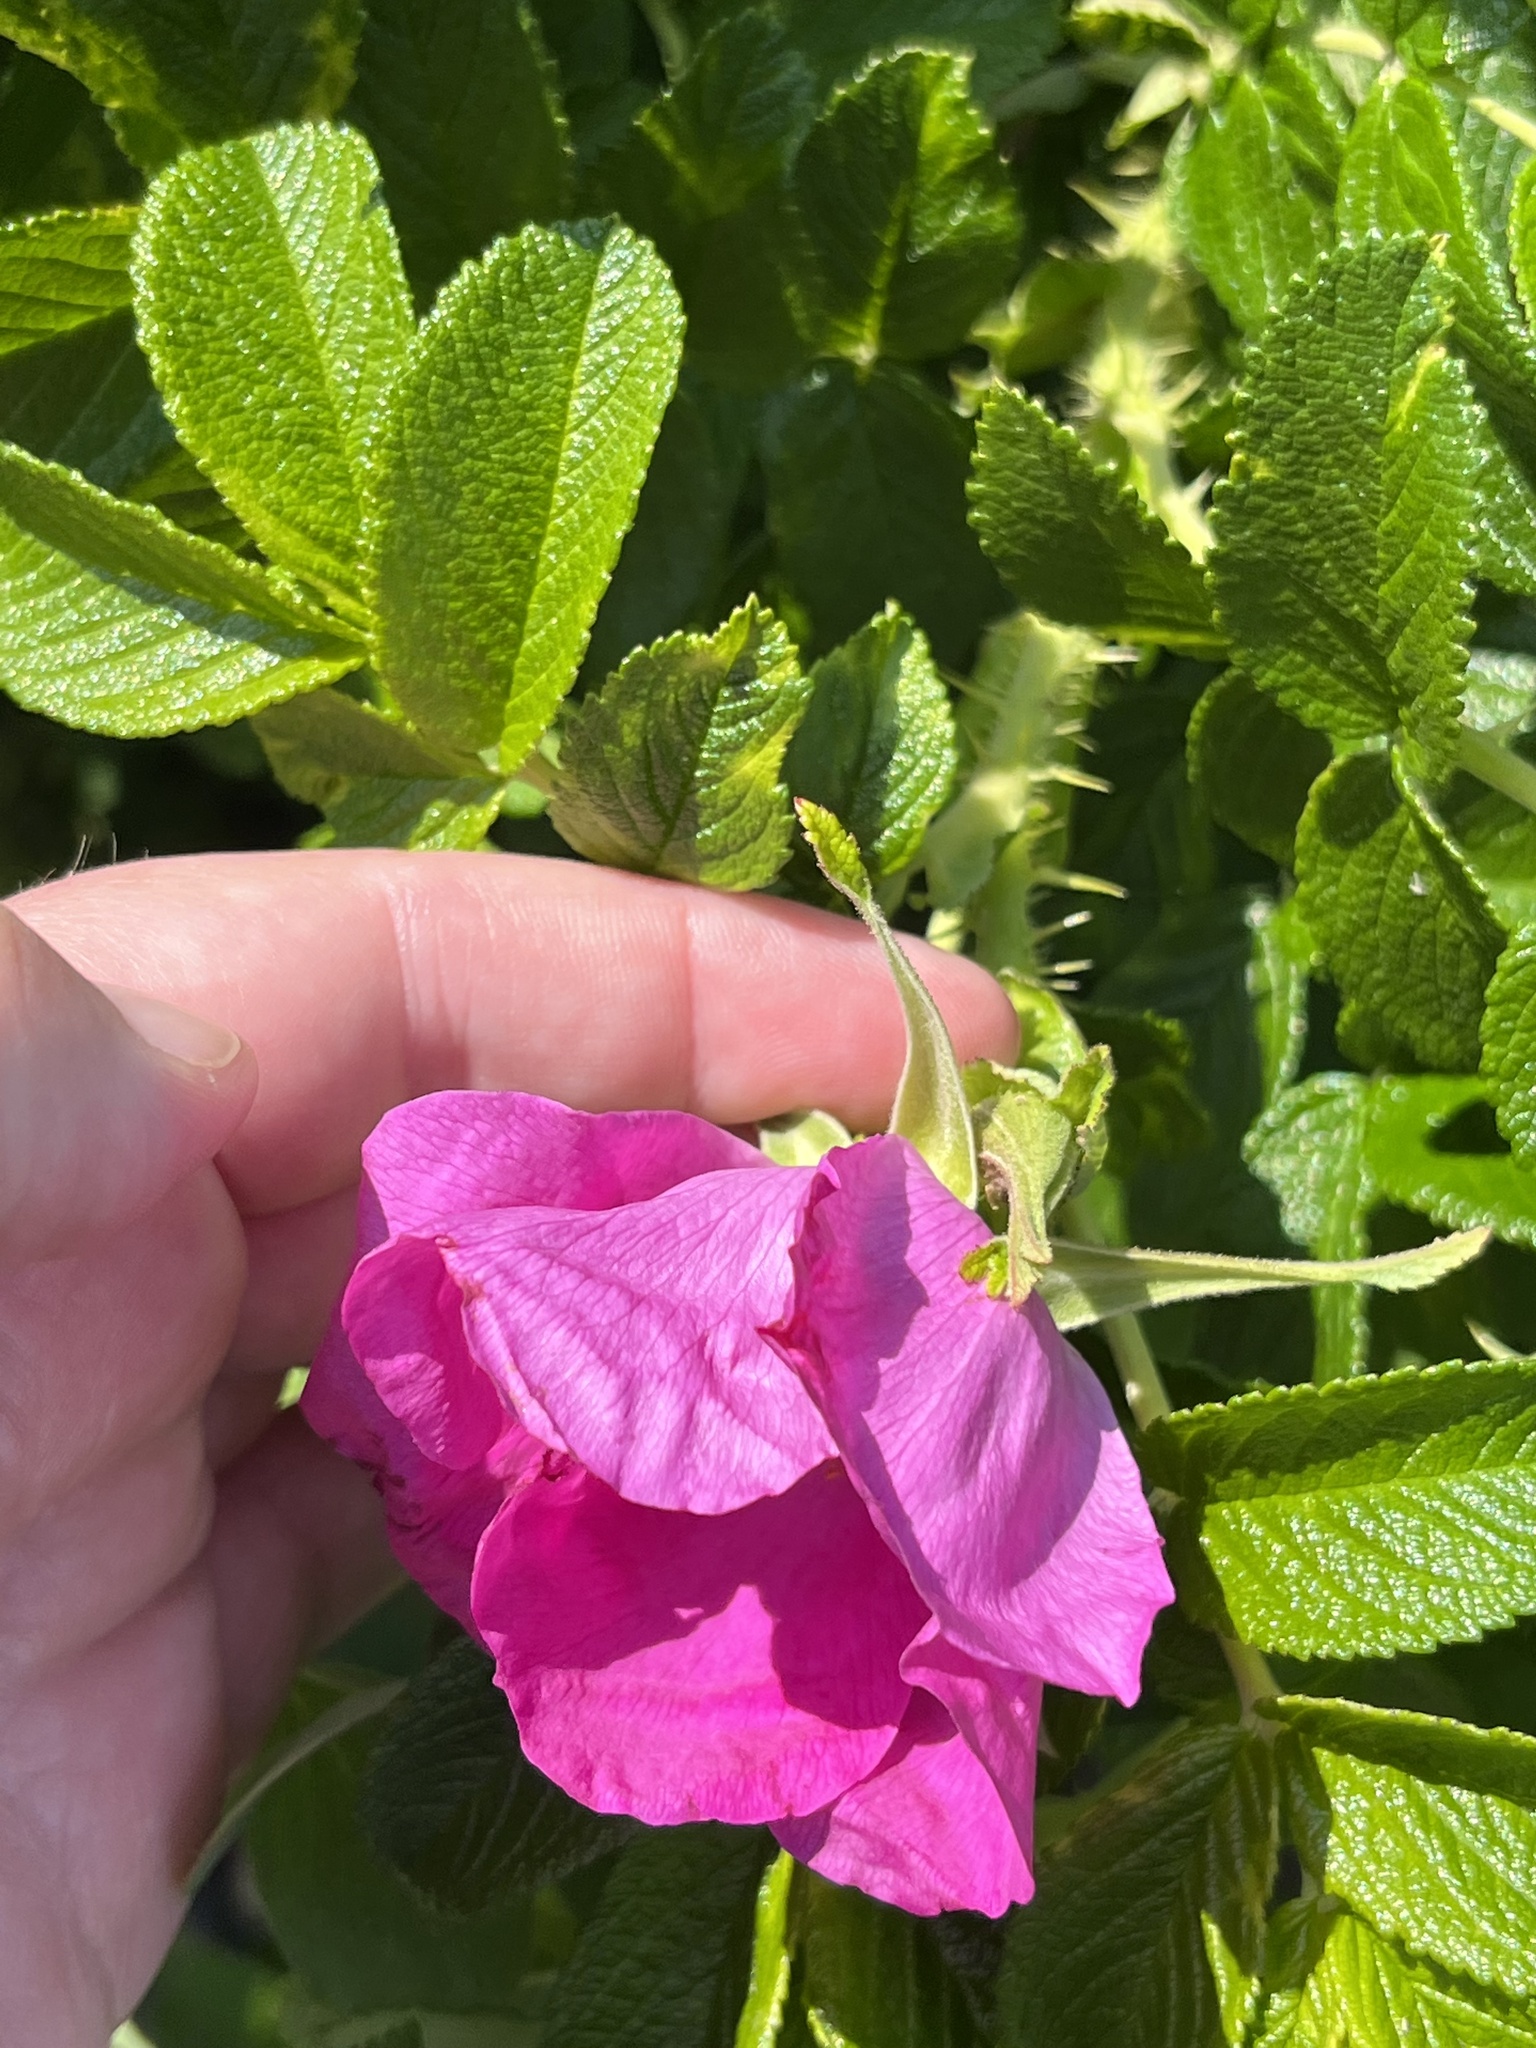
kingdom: Plantae
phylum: Tracheophyta
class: Magnoliopsida
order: Rosales
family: Rosaceae
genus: Rosa
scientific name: Rosa rugosa
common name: Japanese rose
